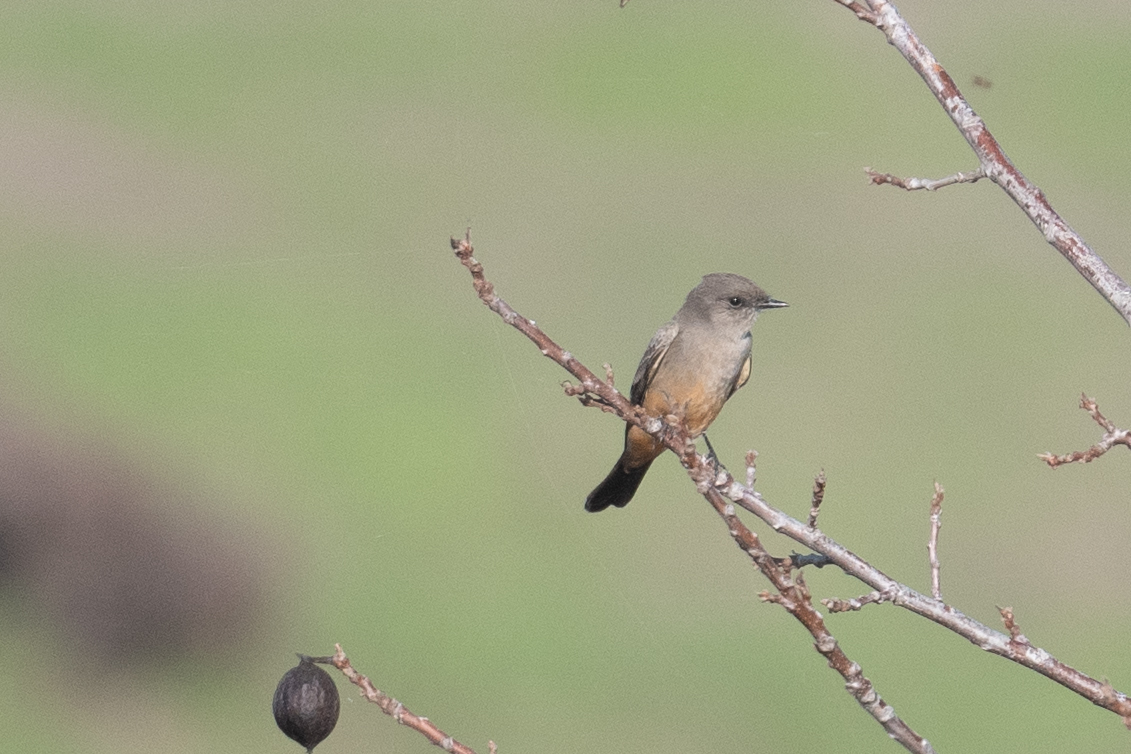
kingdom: Animalia
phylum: Chordata
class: Aves
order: Passeriformes
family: Tyrannidae
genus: Sayornis
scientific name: Sayornis saya
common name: Say's phoebe
